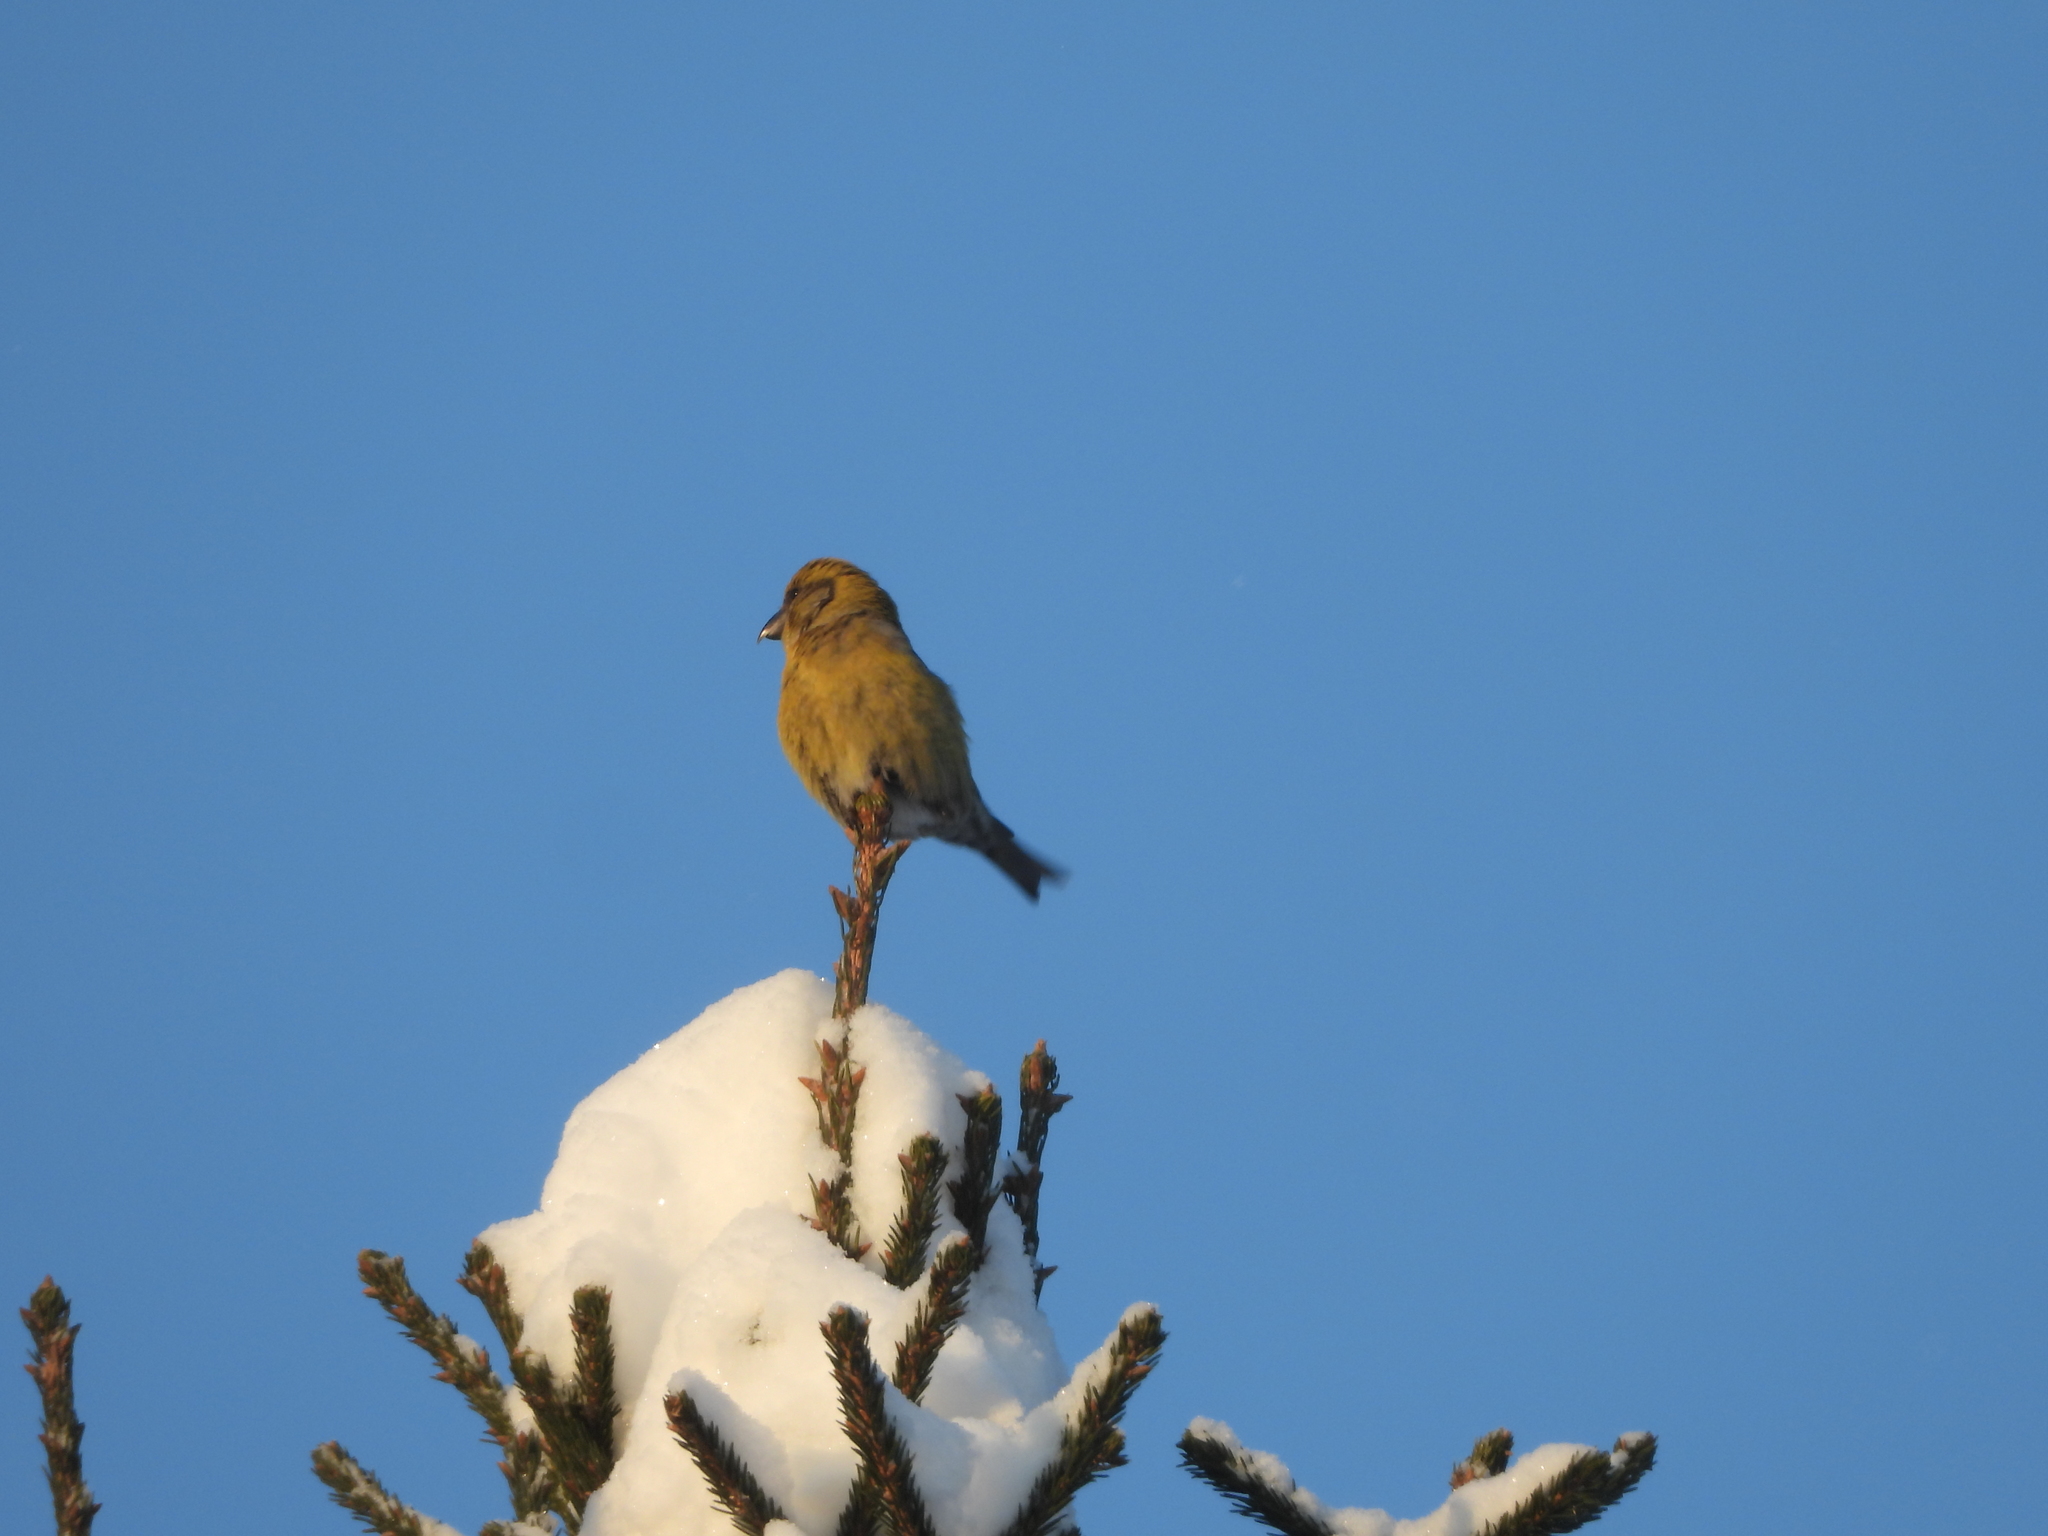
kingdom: Animalia
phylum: Chordata
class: Aves
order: Passeriformes
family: Fringillidae
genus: Loxia
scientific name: Loxia curvirostra
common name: Red crossbill
